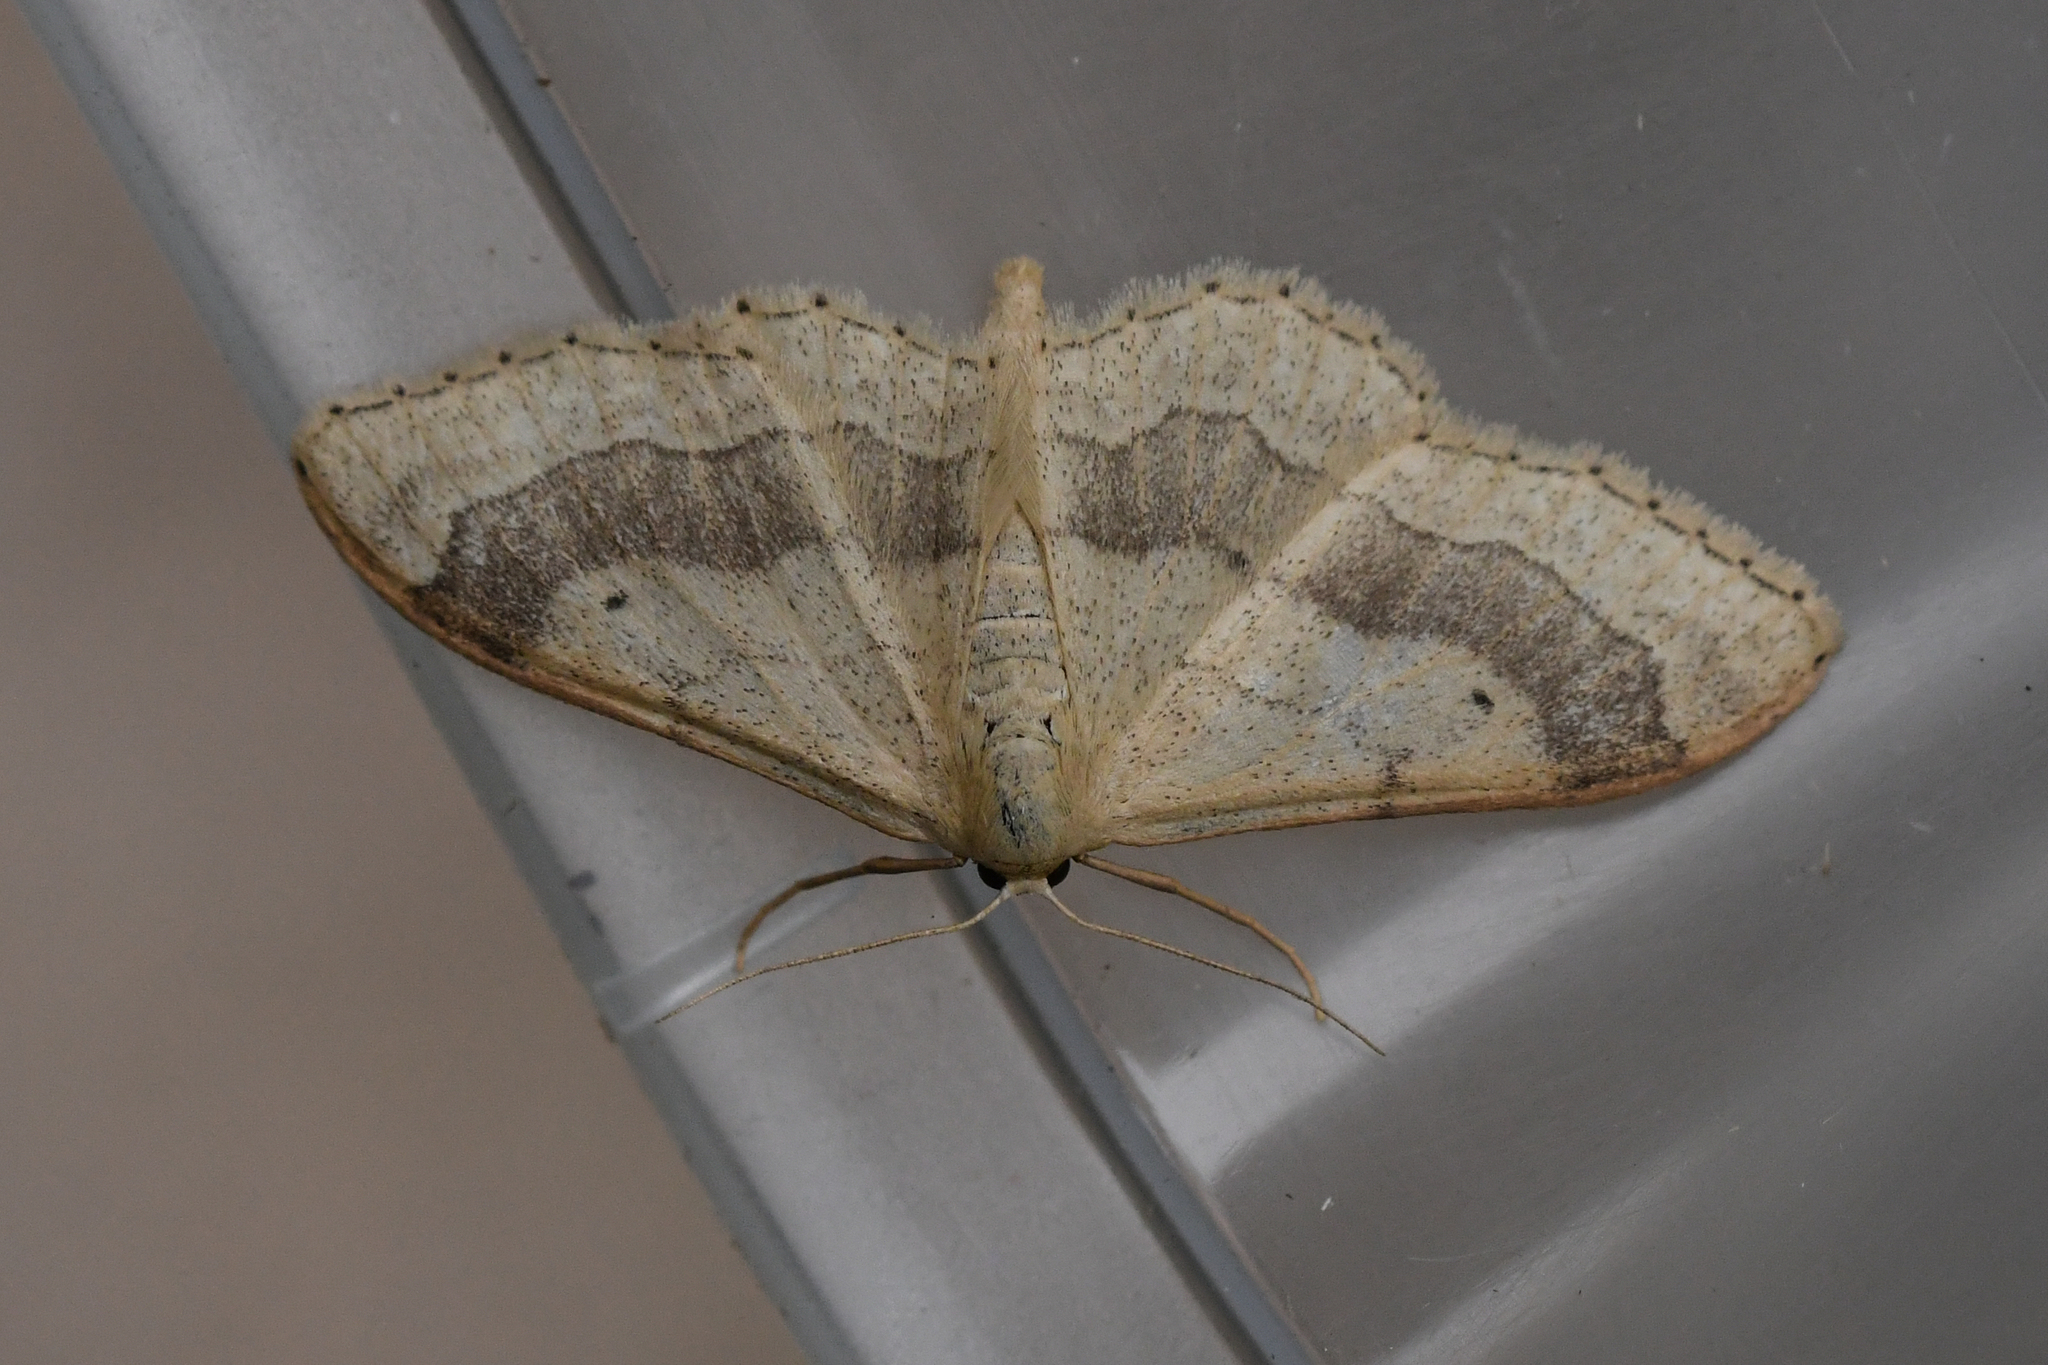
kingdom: Animalia
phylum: Arthropoda
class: Insecta
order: Lepidoptera
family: Geometridae
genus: Idaea
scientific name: Idaea aversata
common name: Riband wave
